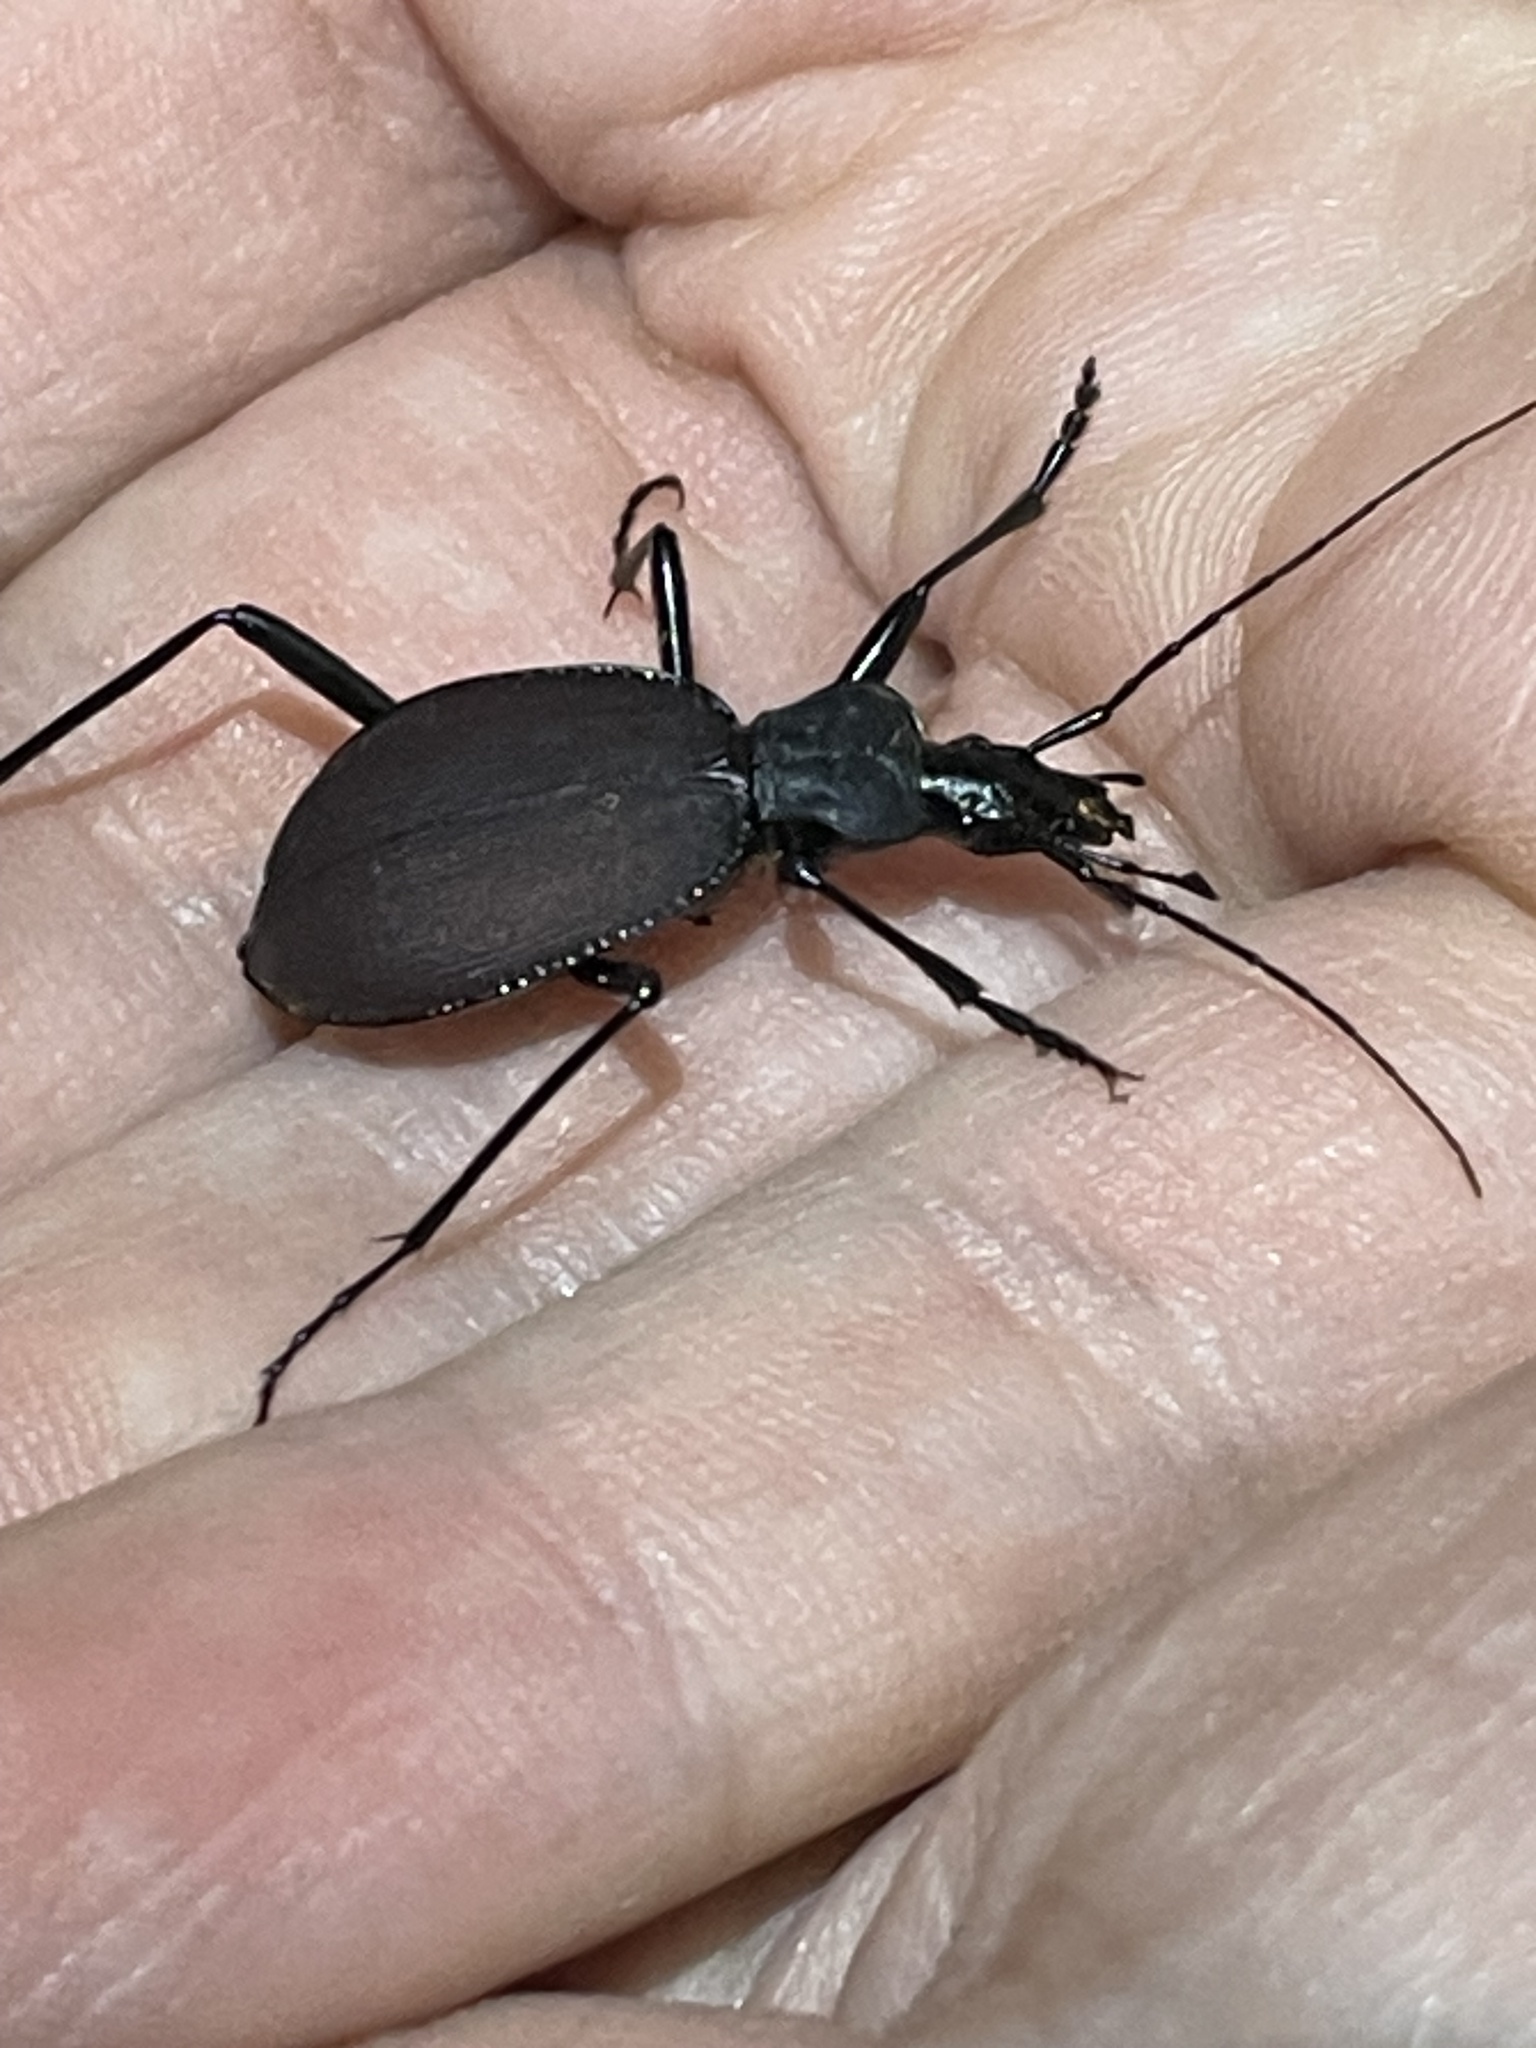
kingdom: Animalia
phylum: Arthropoda
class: Insecta
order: Coleoptera
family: Carabidae
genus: Scaphinotus
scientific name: Scaphinotus angusticollis
